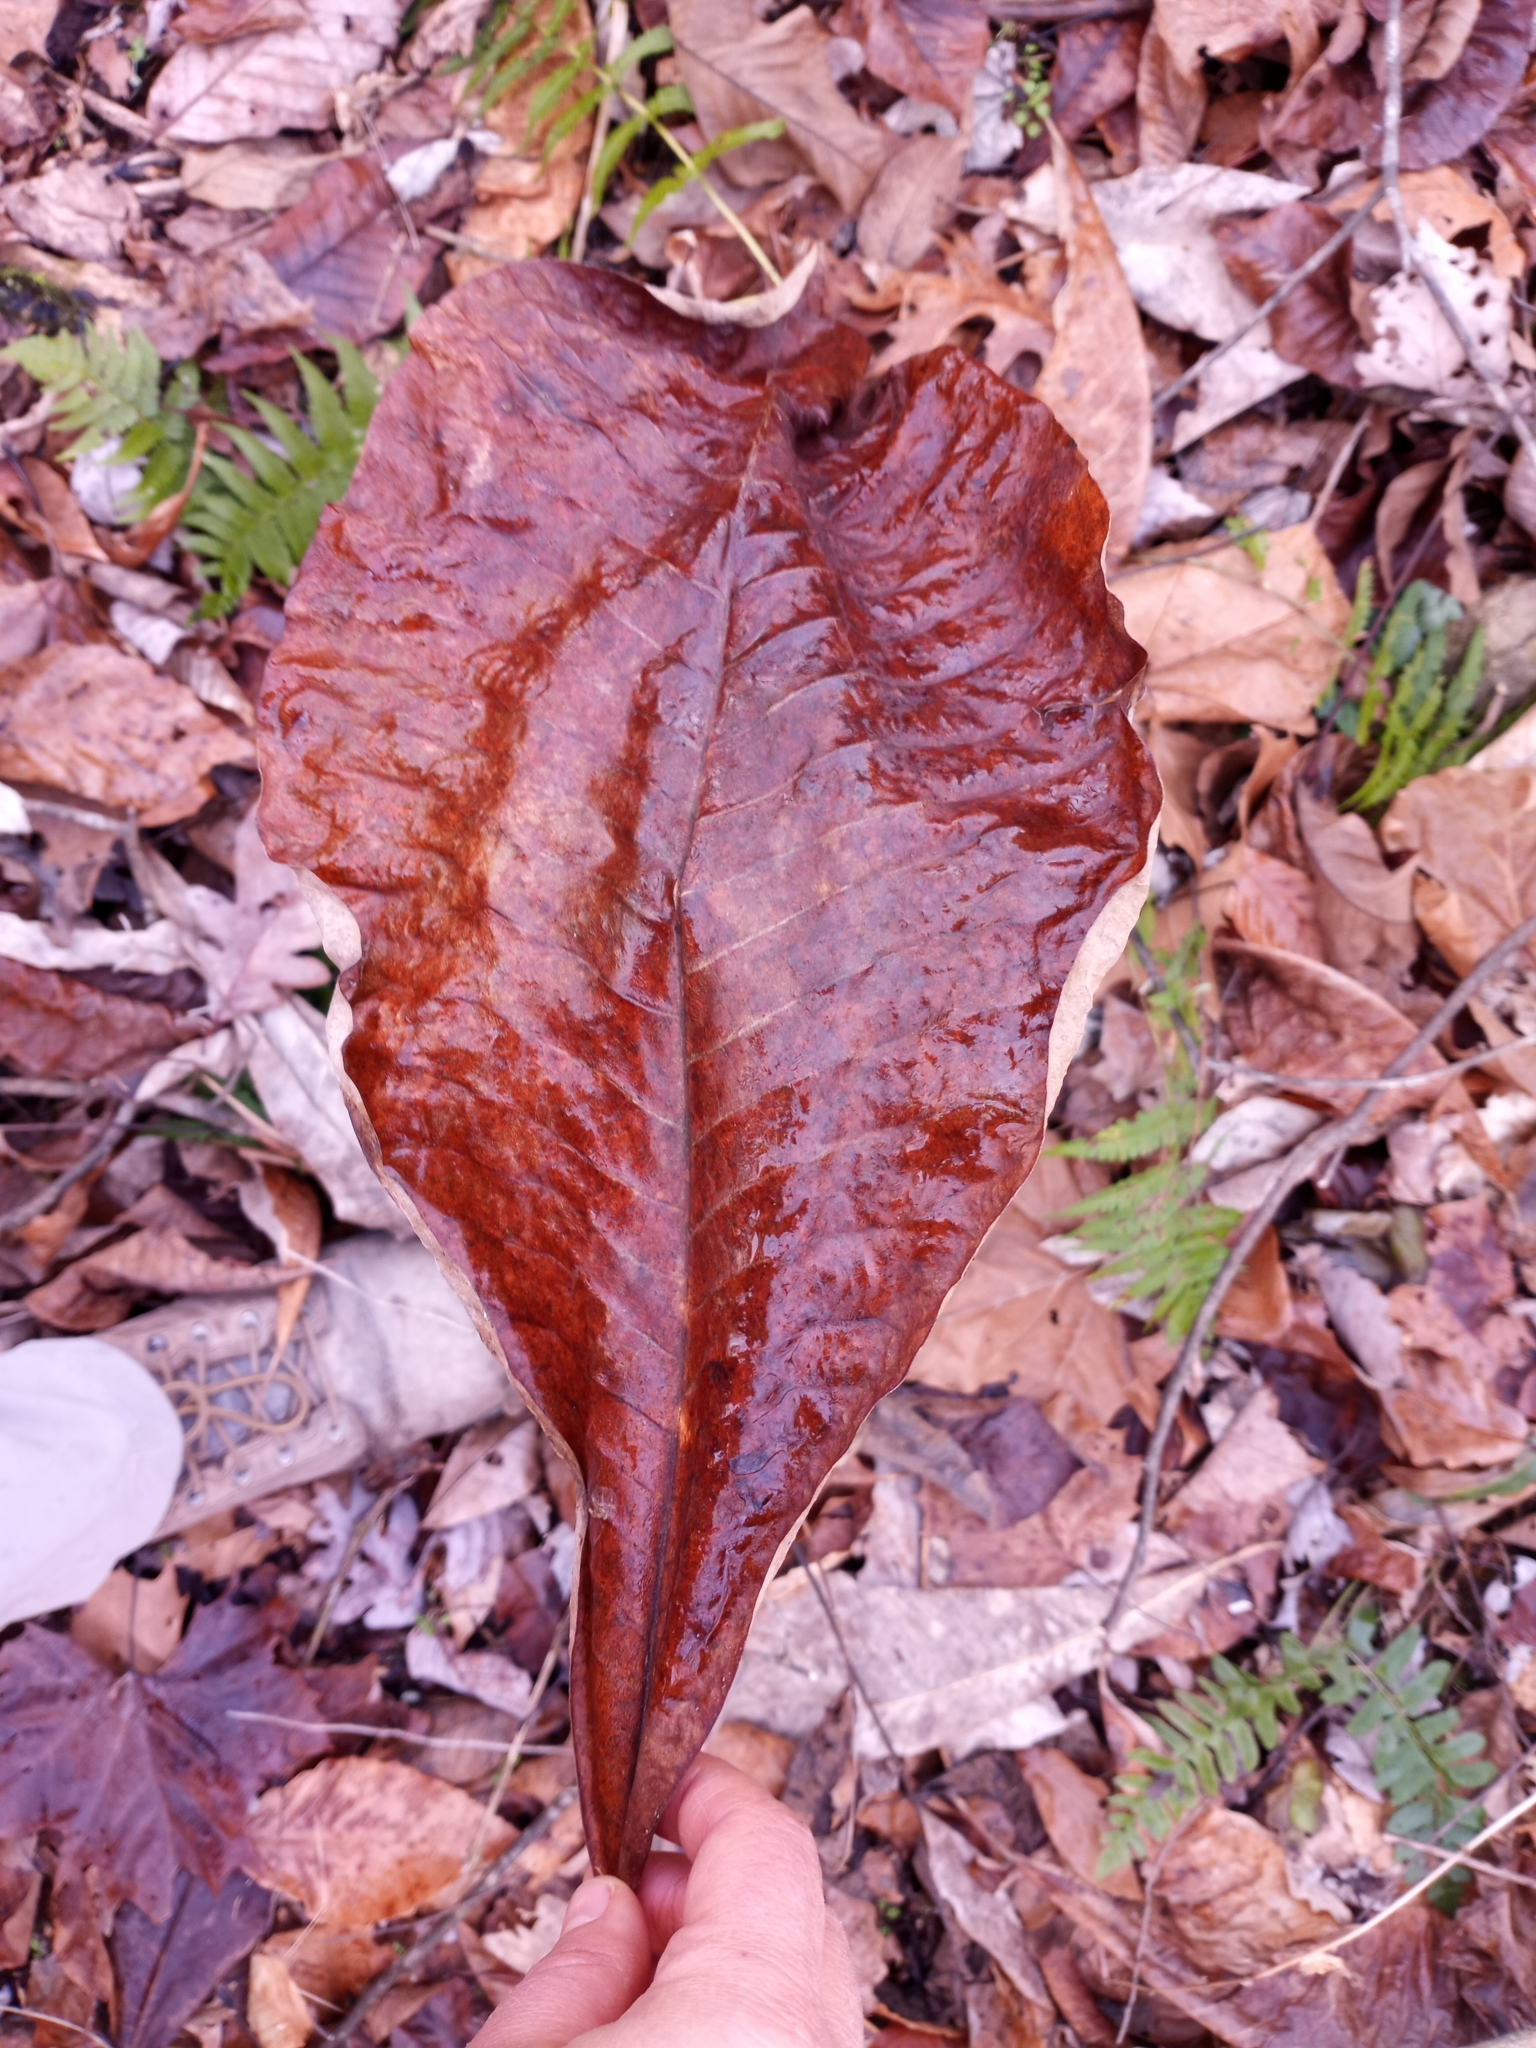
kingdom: Plantae
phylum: Tracheophyta
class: Magnoliopsida
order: Magnoliales
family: Magnoliaceae
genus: Magnolia
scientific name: Magnolia tripetala
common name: Umbrella magnolia
